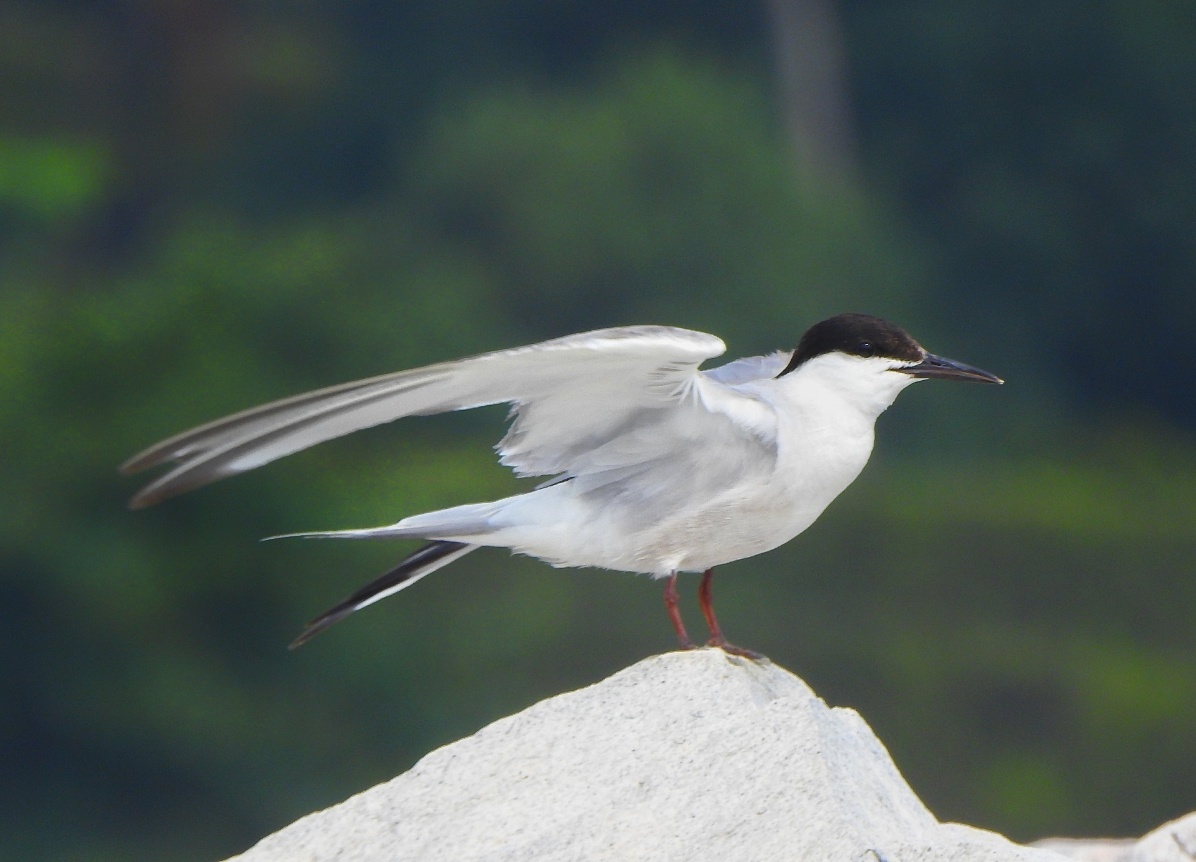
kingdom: Animalia
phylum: Chordata
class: Aves
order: Charadriiformes
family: Laridae
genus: Sterna
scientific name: Sterna hirundo
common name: Common tern
